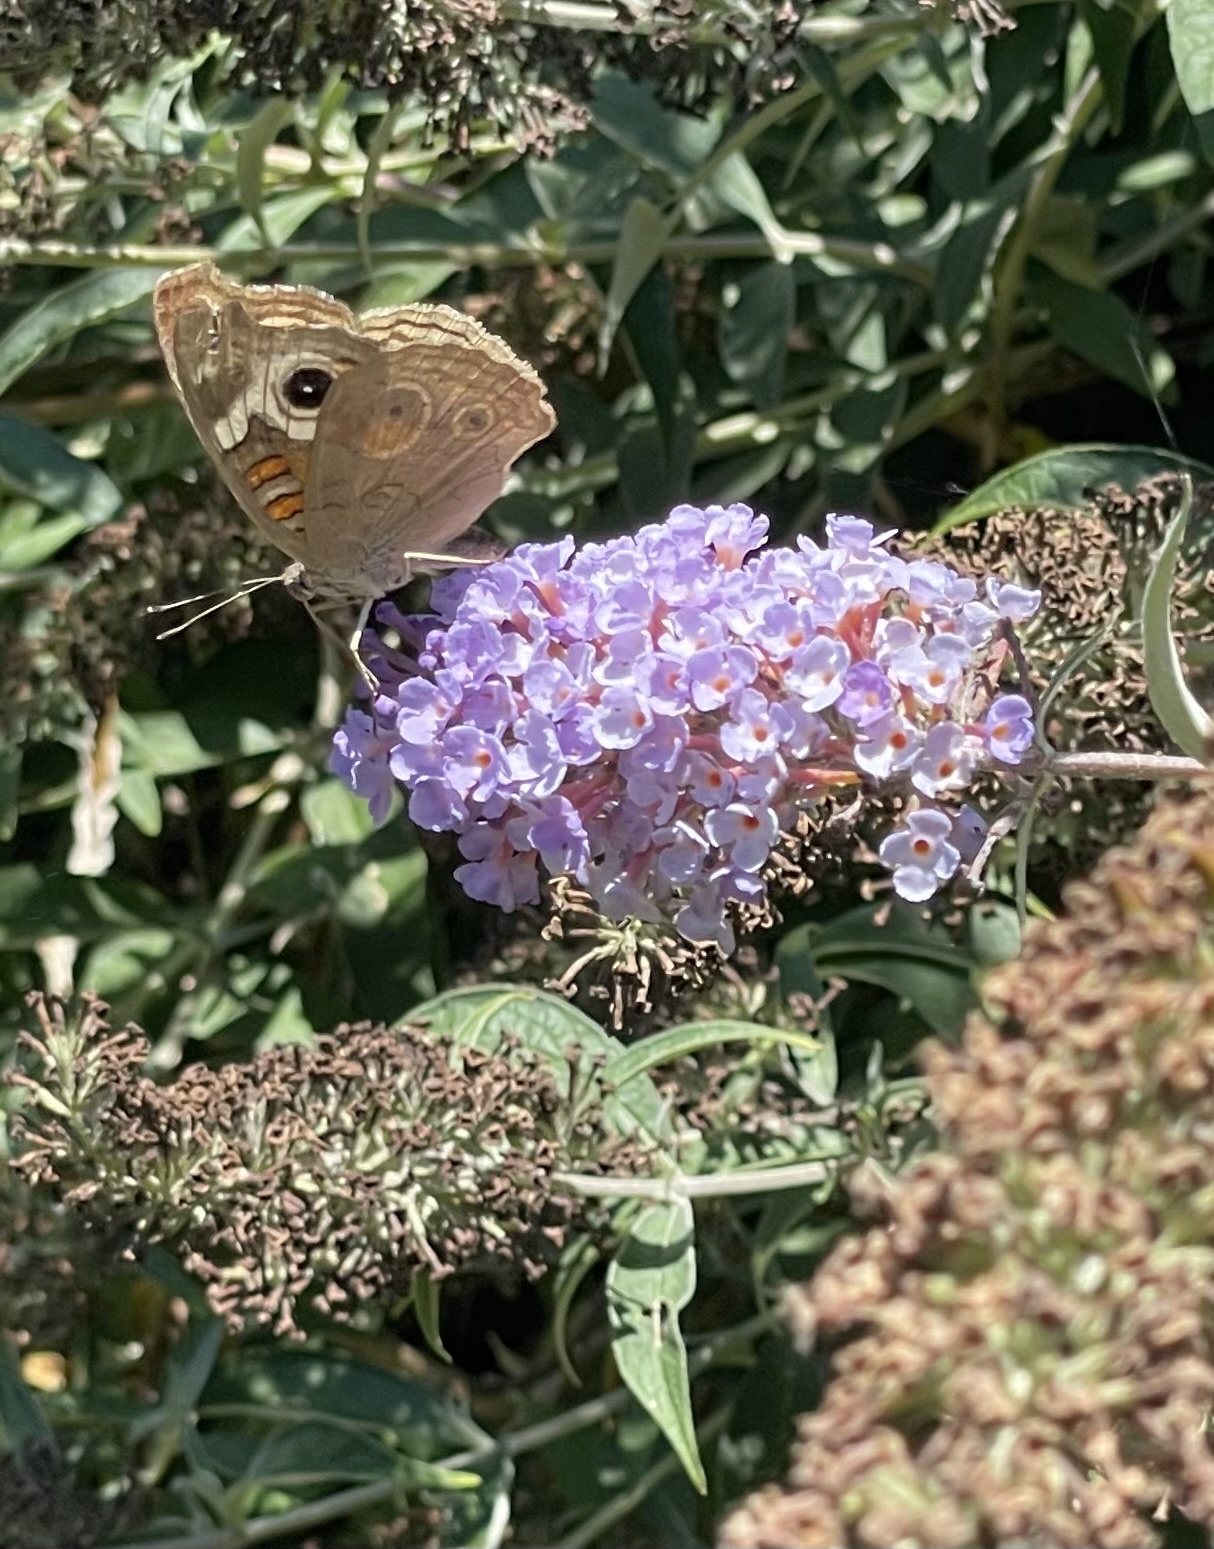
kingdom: Animalia
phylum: Arthropoda
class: Insecta
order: Lepidoptera
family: Nymphalidae
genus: Junonia
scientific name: Junonia grisea
